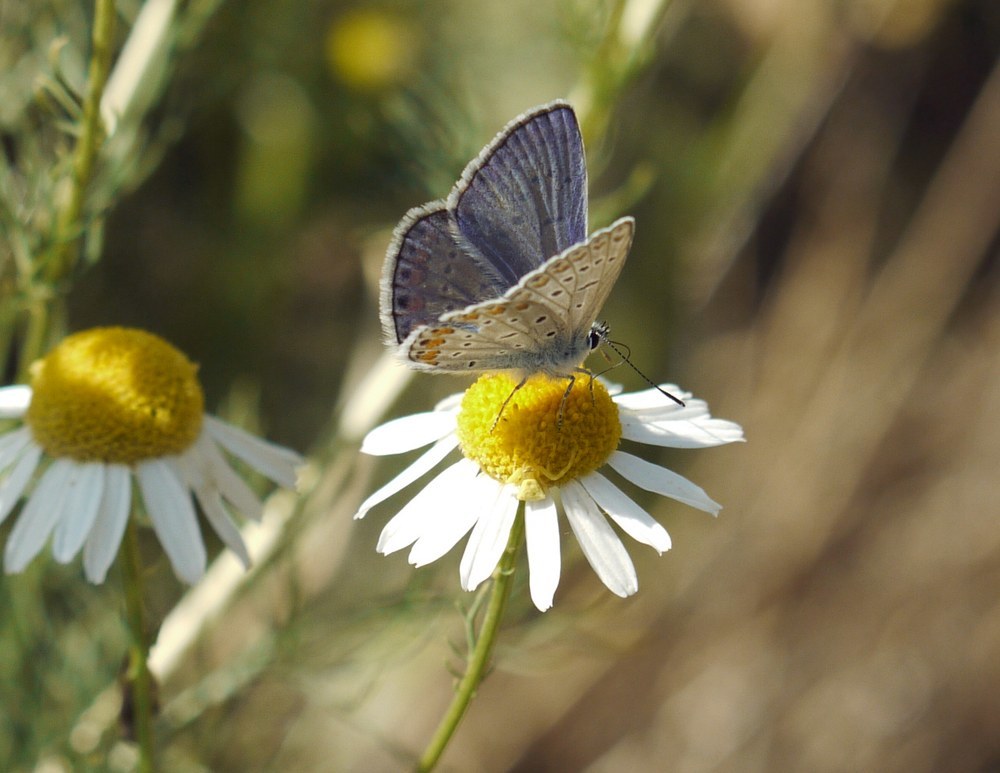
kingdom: Animalia
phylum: Arthropoda
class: Insecta
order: Lepidoptera
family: Lycaenidae
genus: Polyommatus
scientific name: Polyommatus icarus
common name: Common blue
